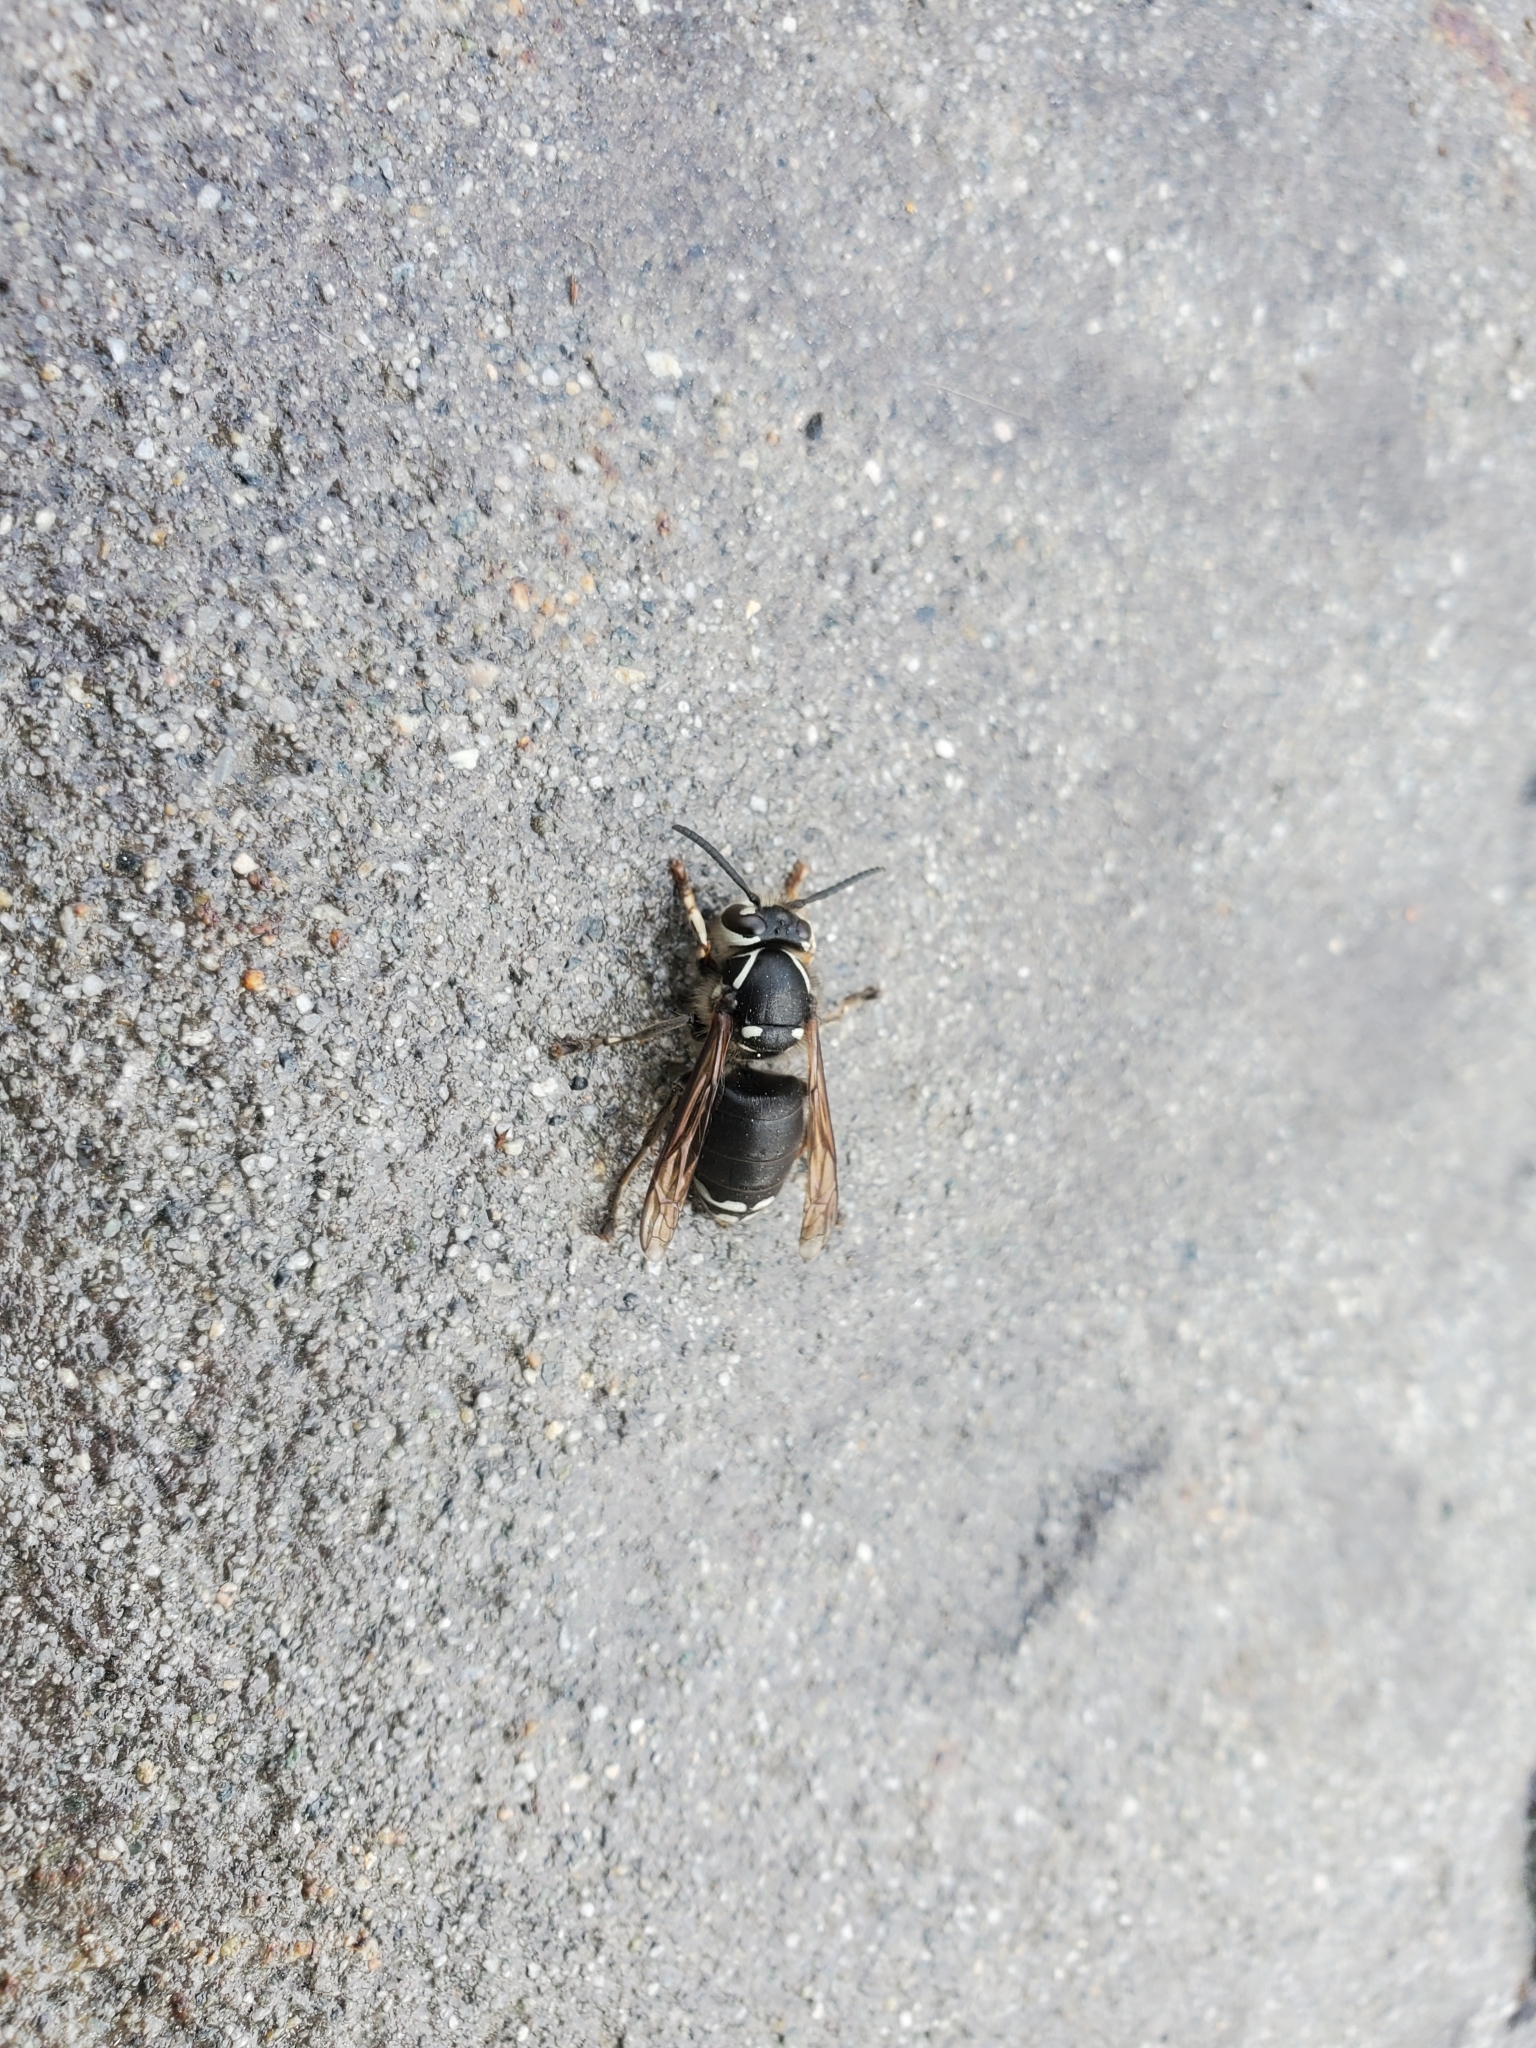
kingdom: Animalia
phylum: Arthropoda
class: Insecta
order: Hymenoptera
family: Vespidae
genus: Dolichovespula
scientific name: Dolichovespula maculata
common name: Bald-faced hornet
